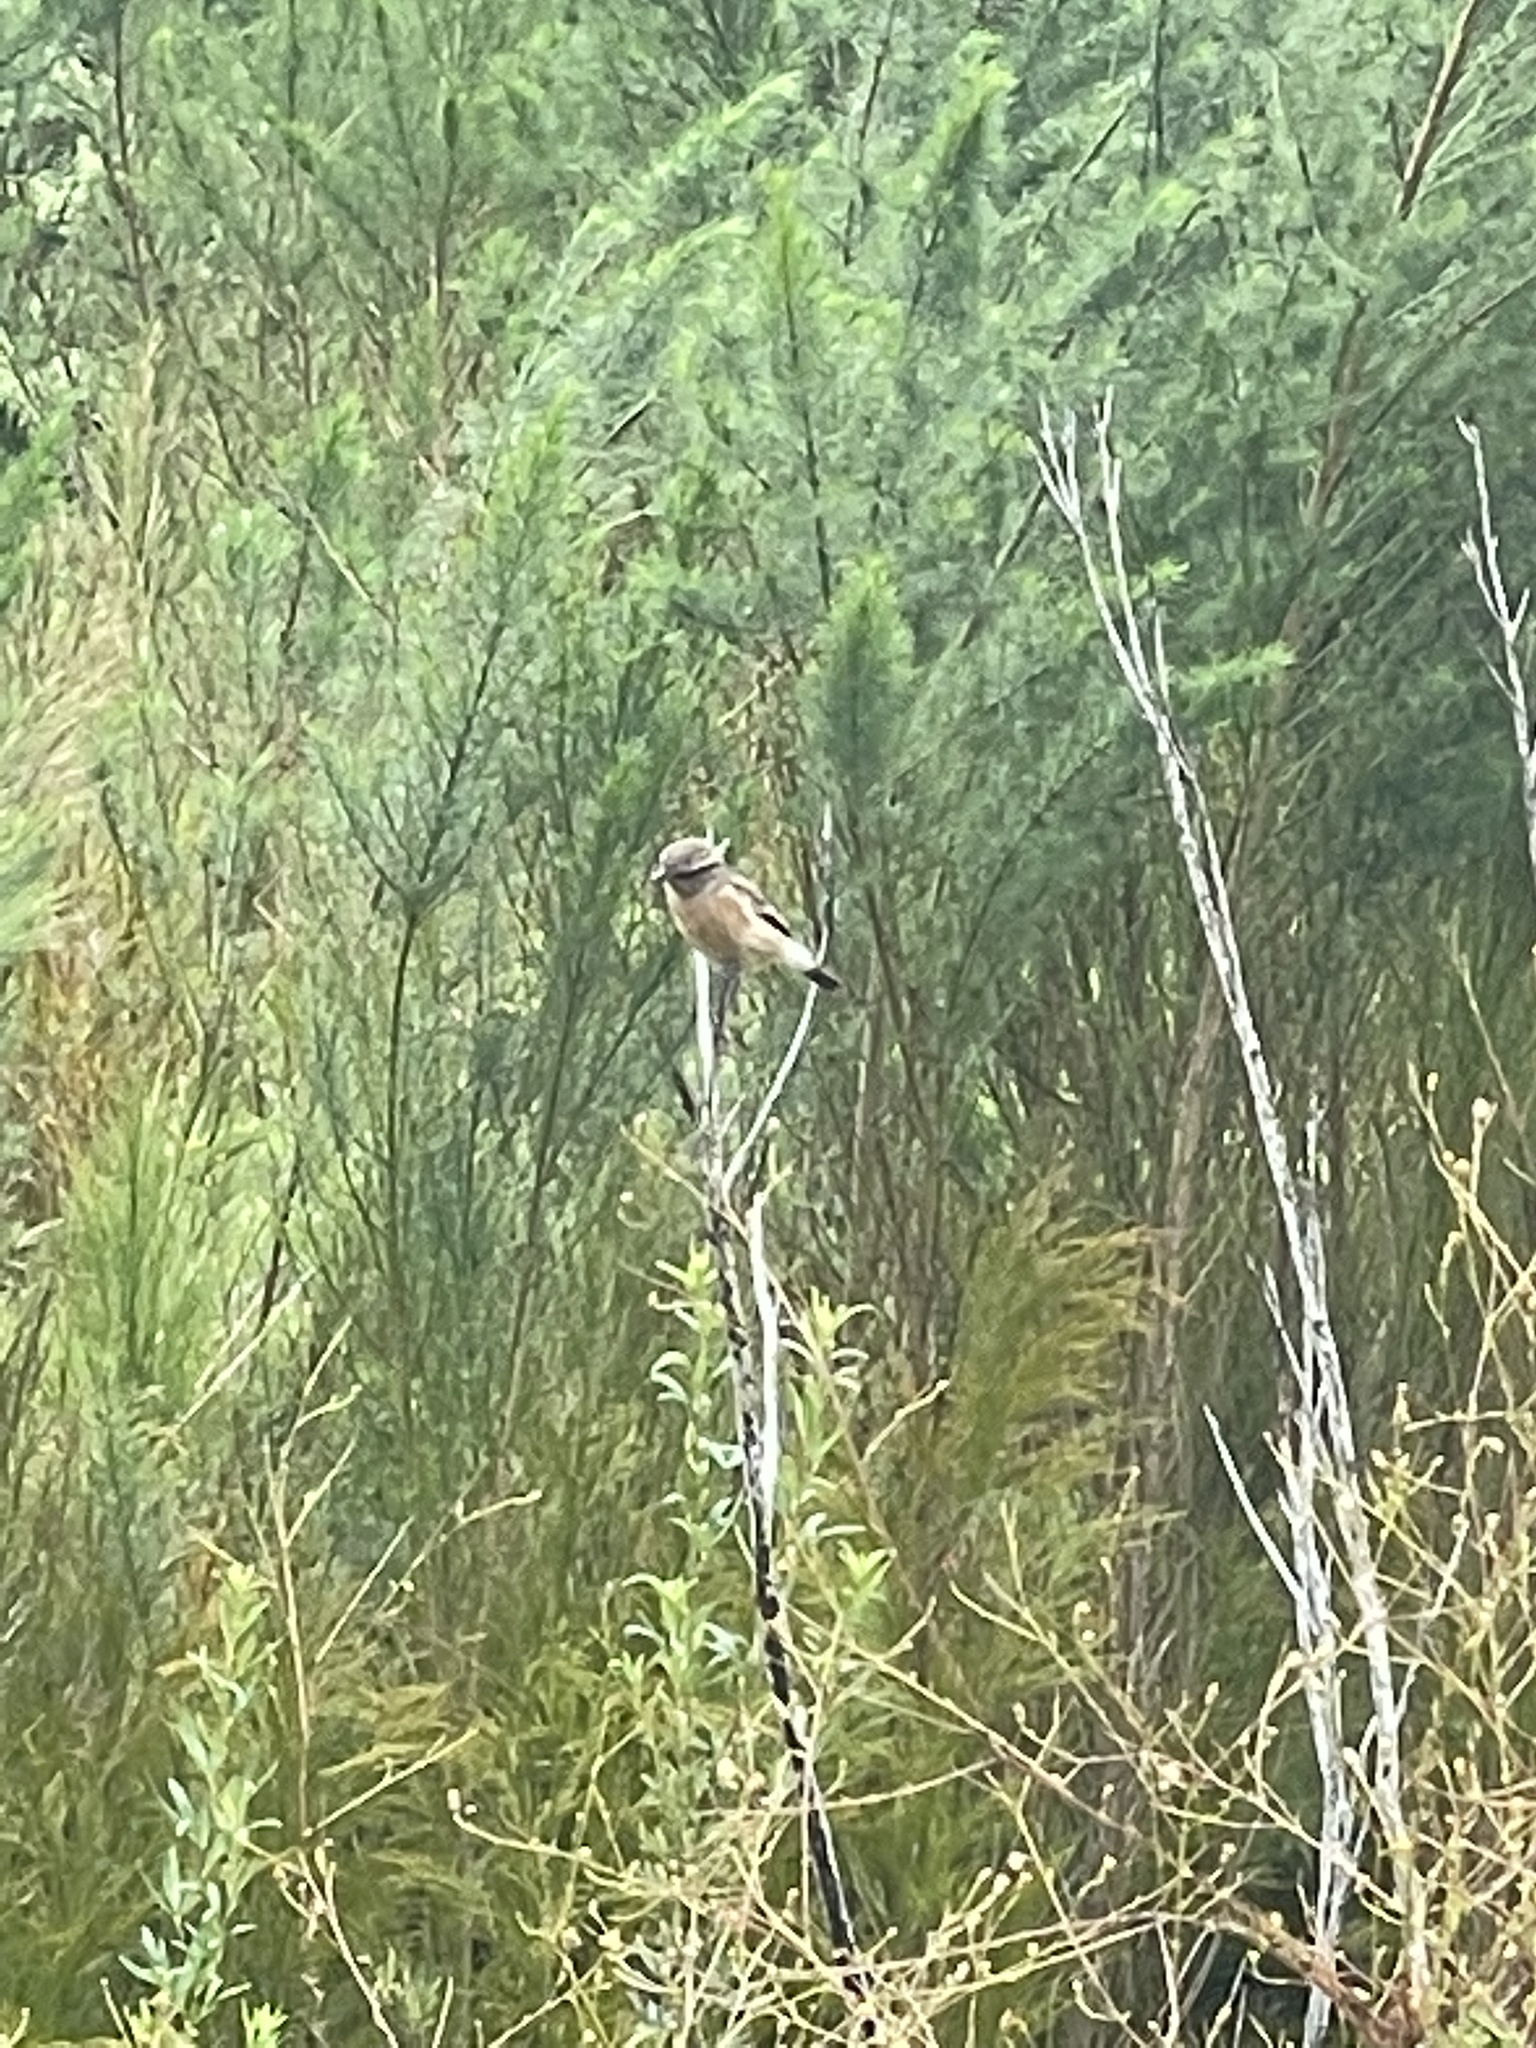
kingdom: Animalia
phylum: Chordata
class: Aves
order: Passeriformes
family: Muscicapidae
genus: Saxicola
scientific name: Saxicola torquatus
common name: African stonechat
